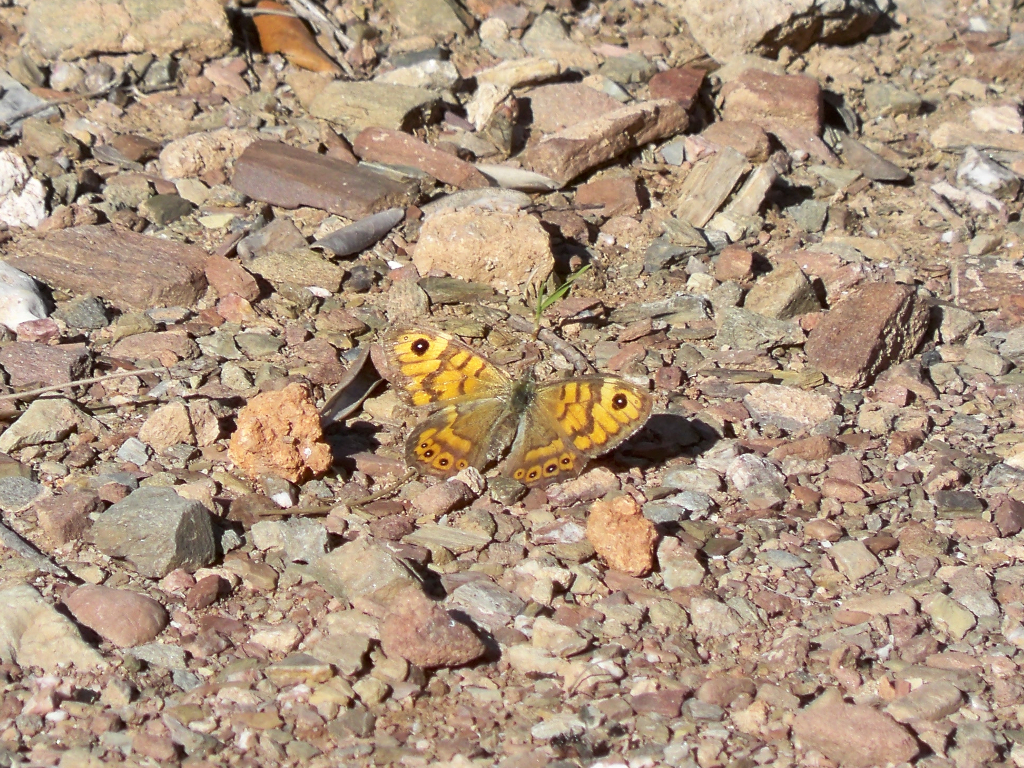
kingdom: Animalia
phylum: Arthropoda
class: Insecta
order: Lepidoptera
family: Nymphalidae
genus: Pararge
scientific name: Pararge Lasiommata megera
